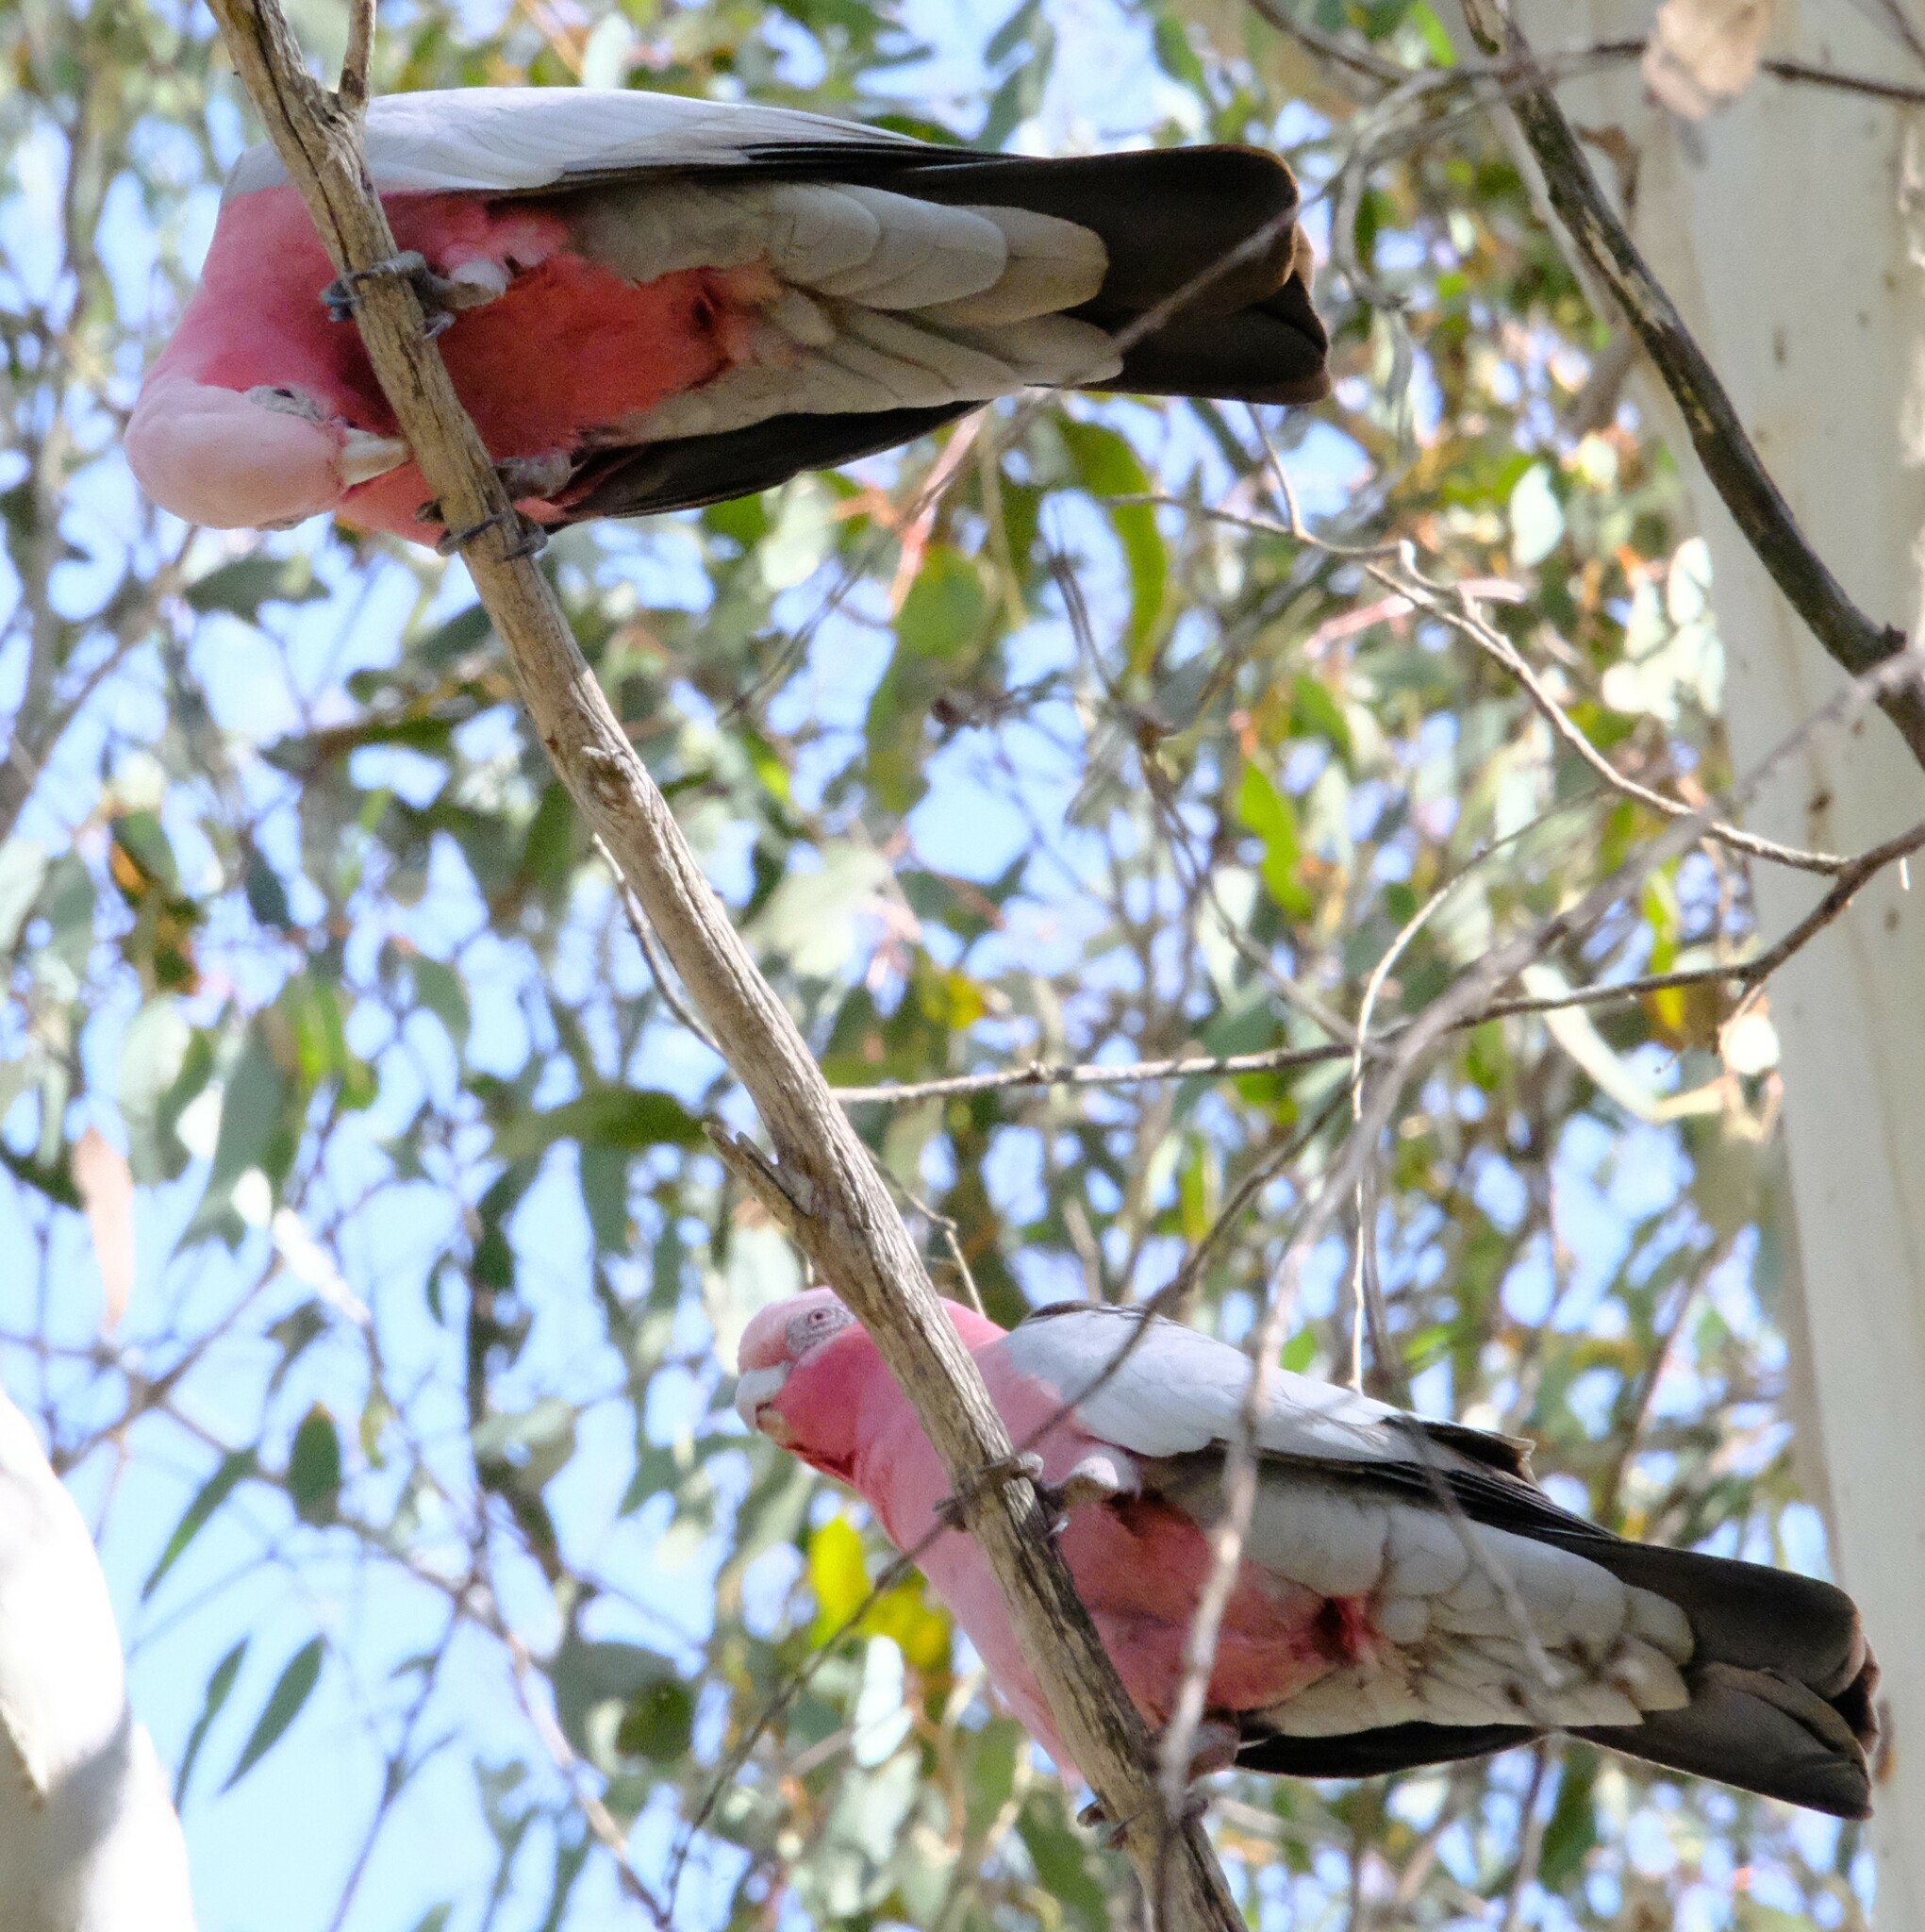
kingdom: Animalia
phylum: Chordata
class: Aves
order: Psittaciformes
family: Psittacidae
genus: Eolophus
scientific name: Eolophus roseicapilla
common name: Galah
